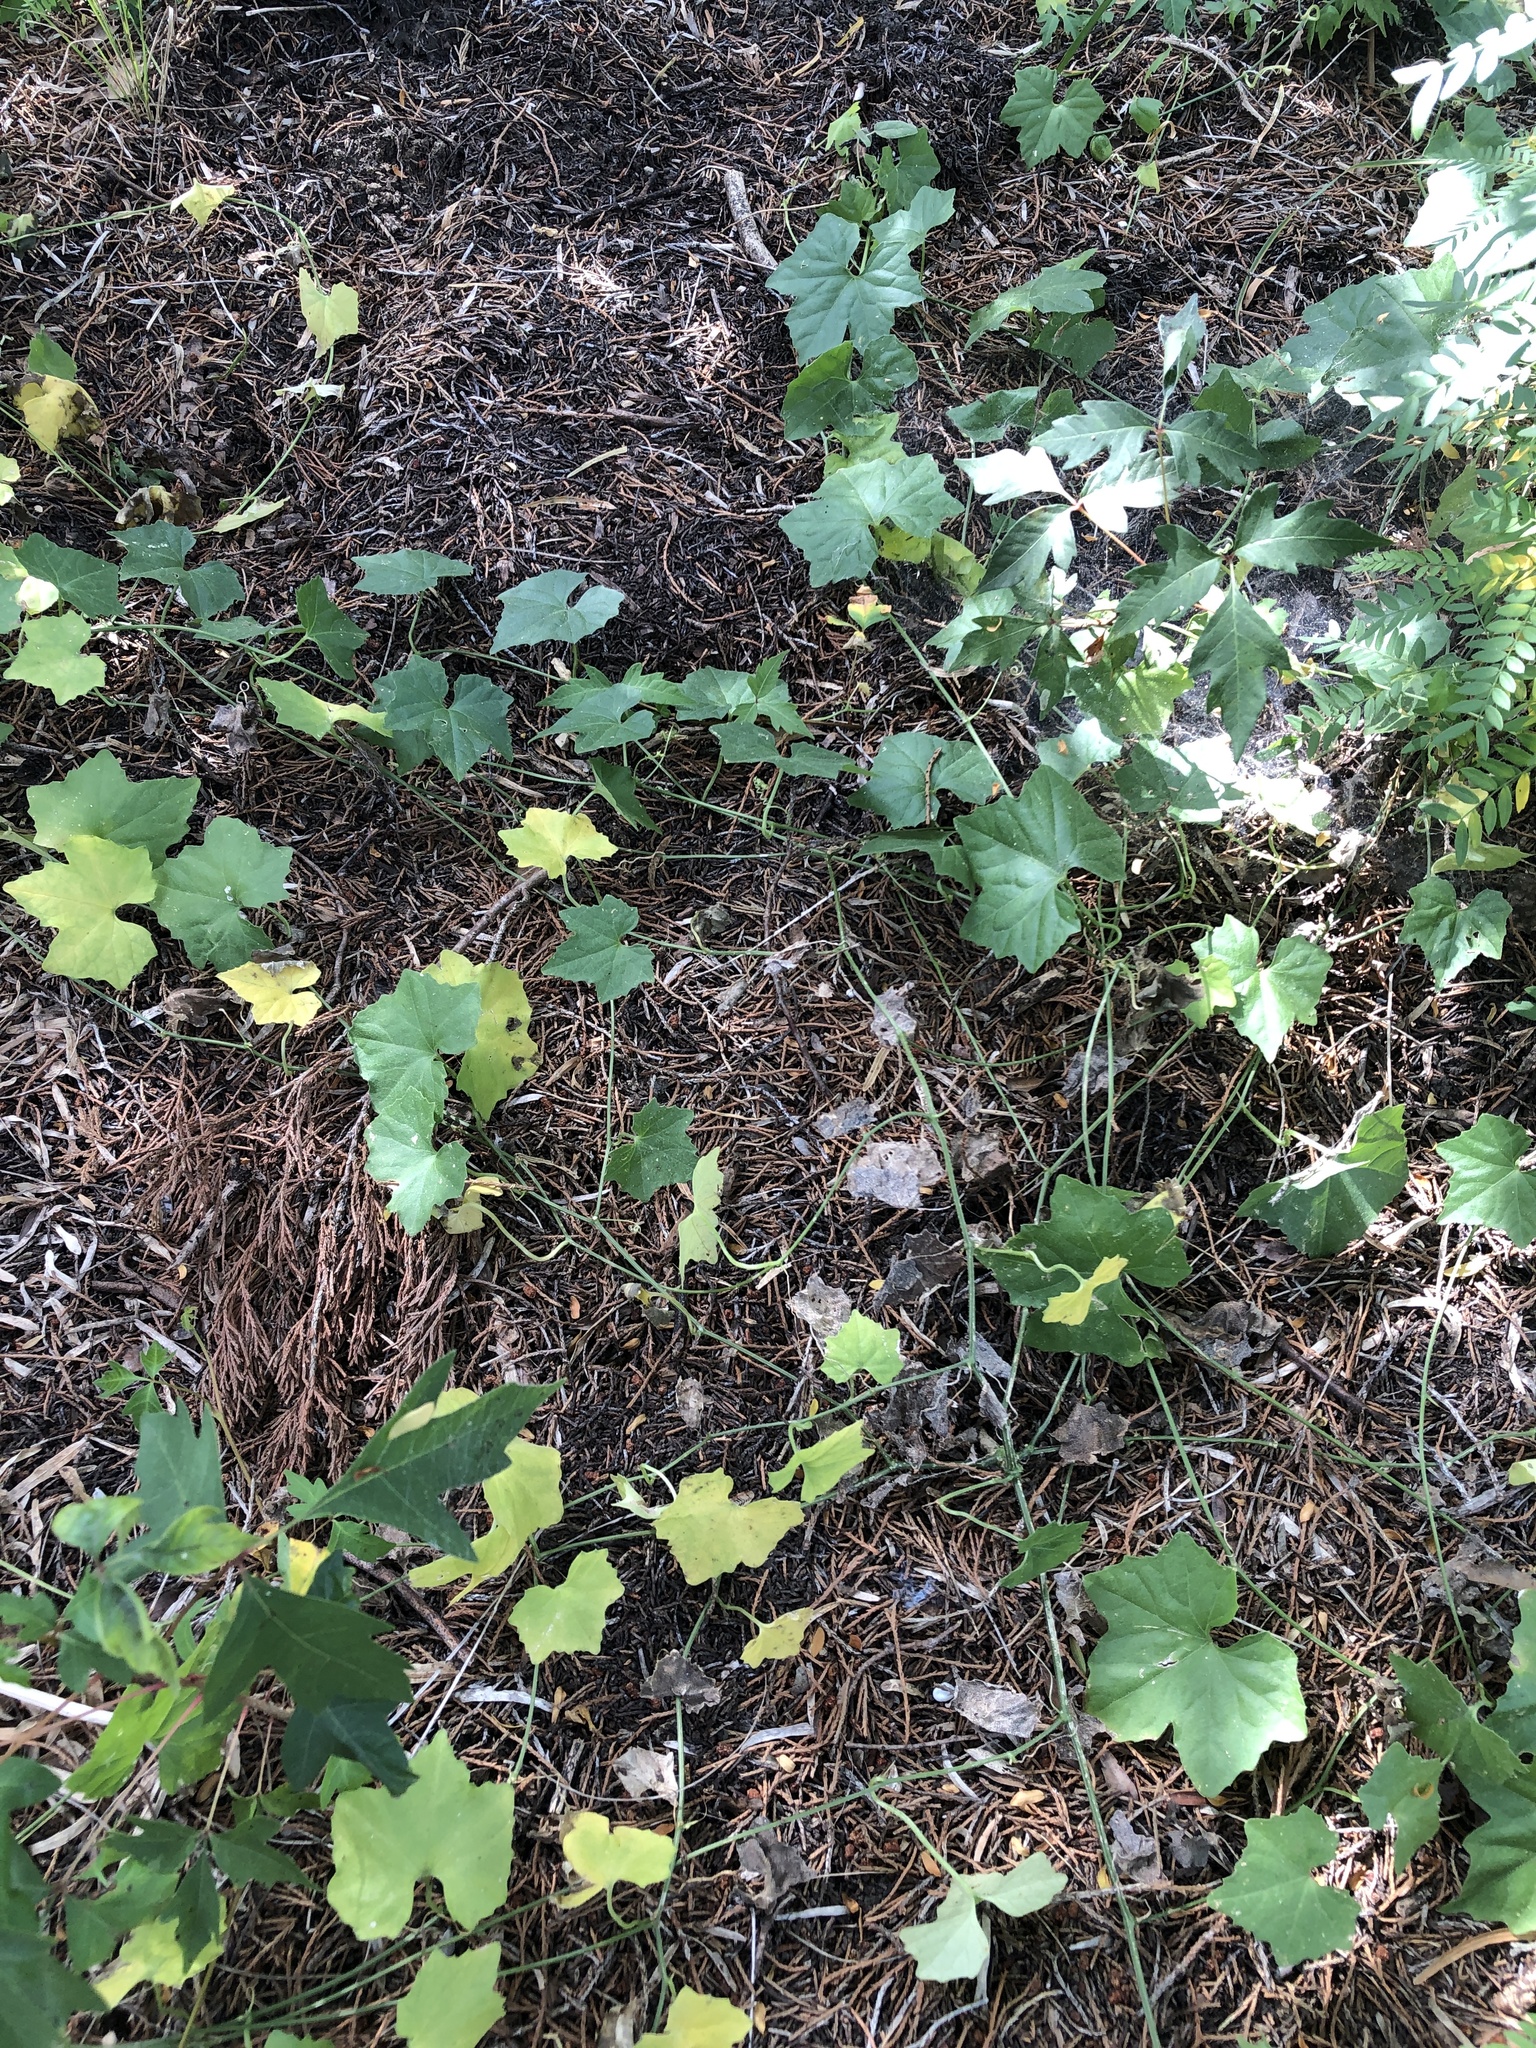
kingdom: Plantae
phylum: Tracheophyta
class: Magnoliopsida
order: Cucurbitales
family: Cucurbitaceae
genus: Melothria
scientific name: Melothria pendula
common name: Creeping-cucumber
